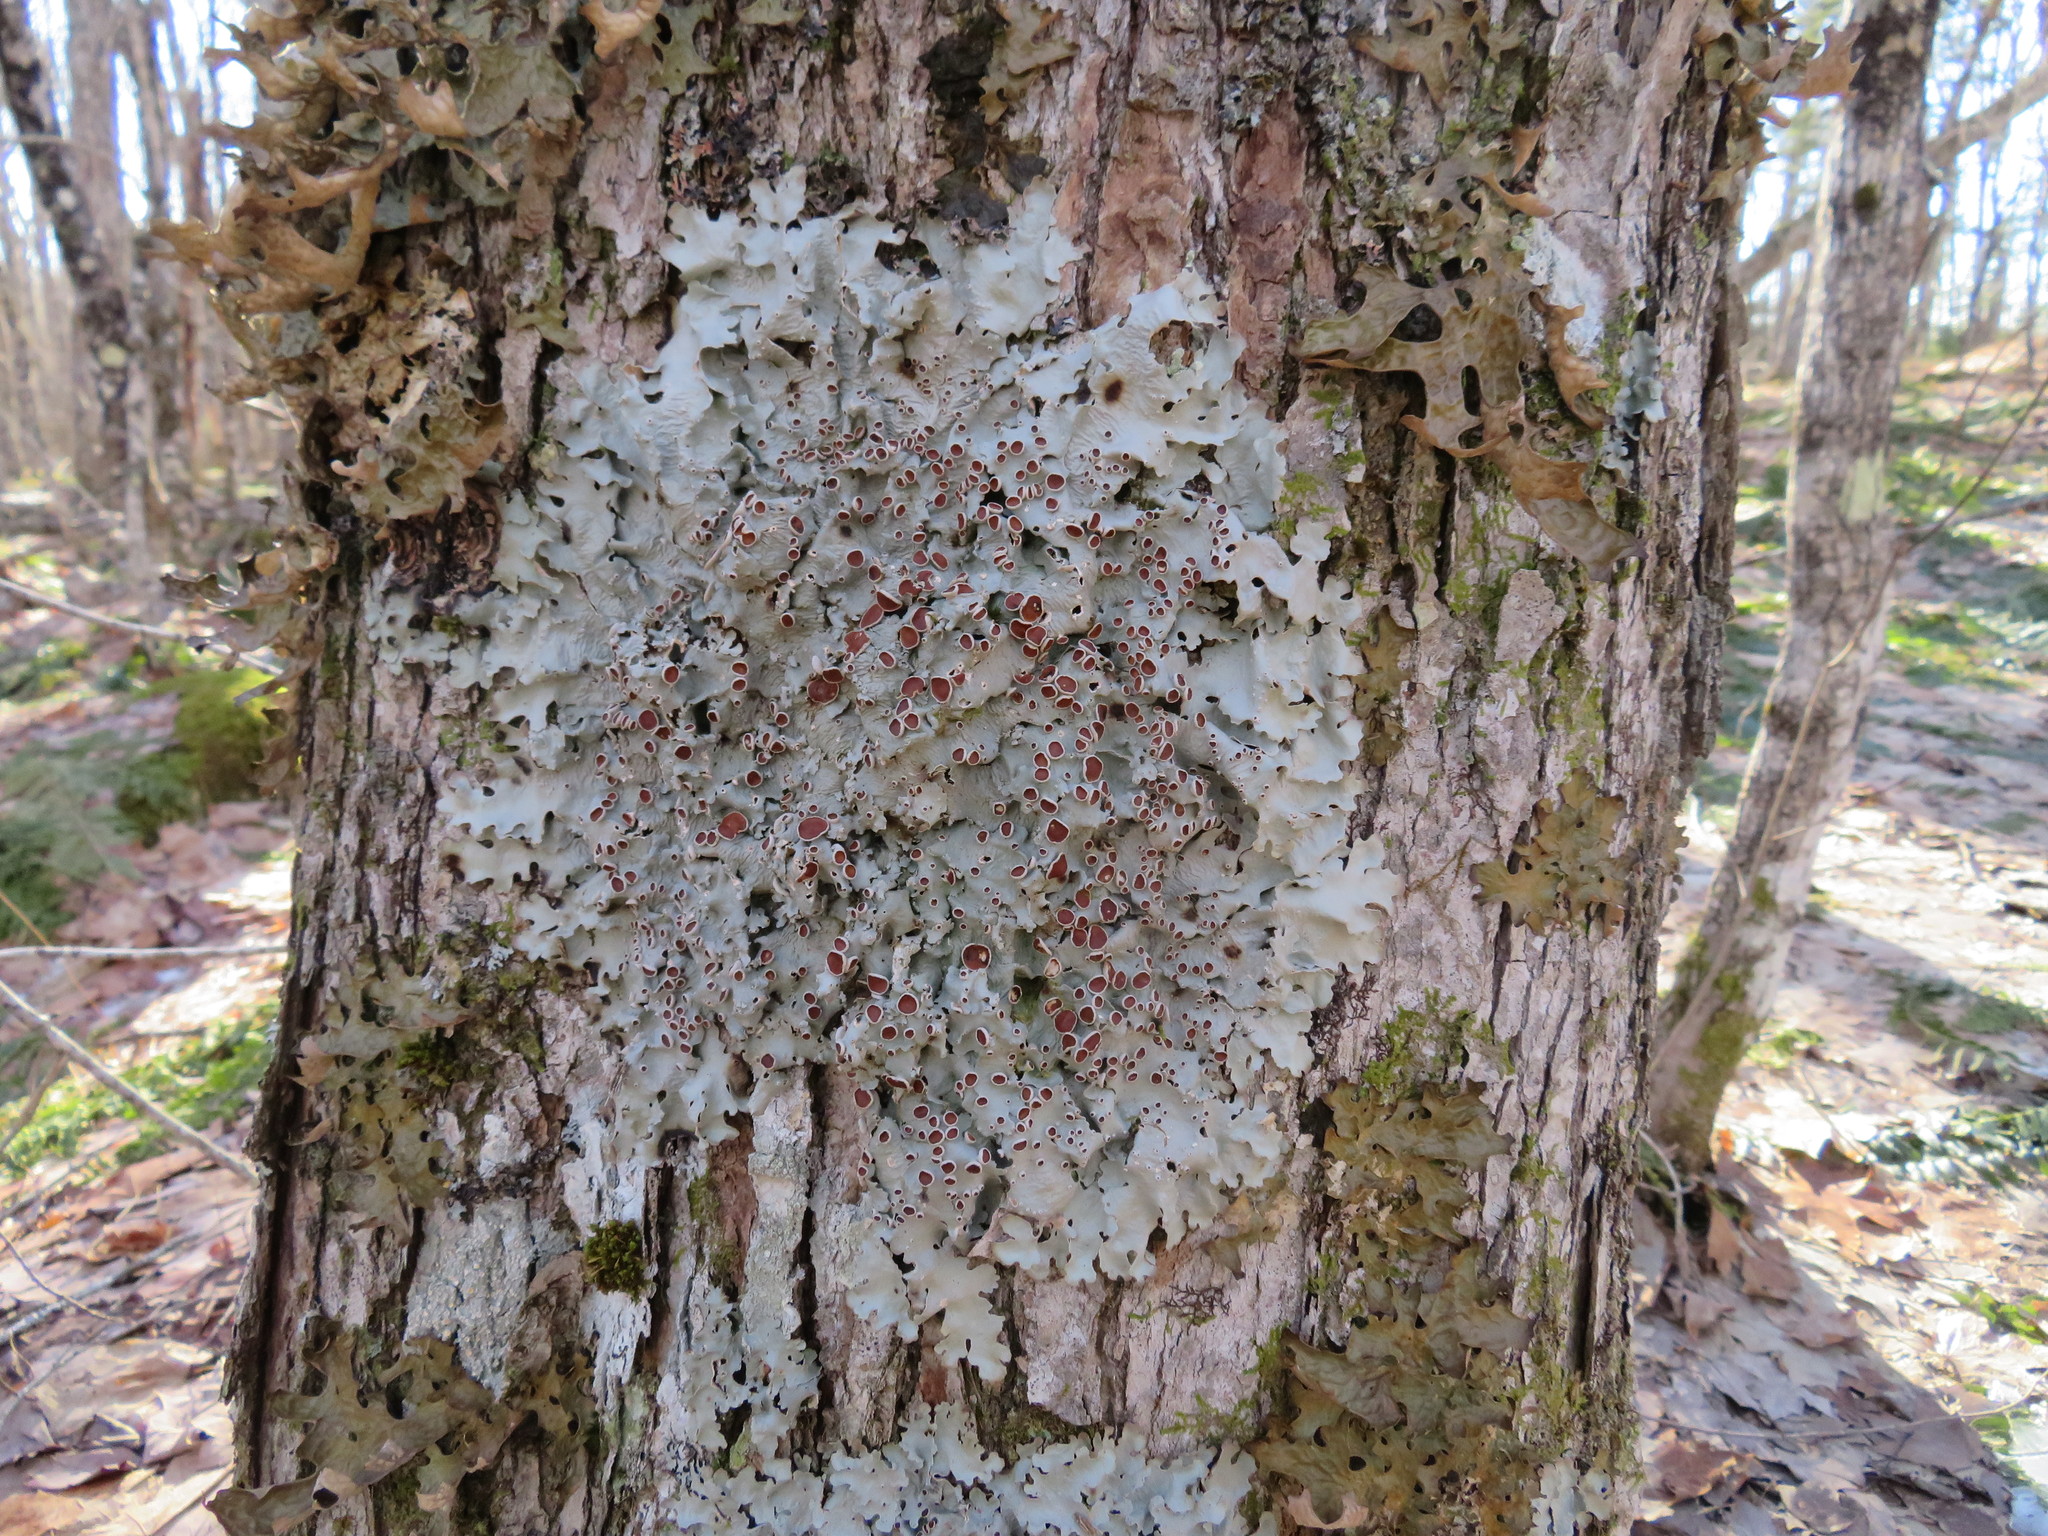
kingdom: Fungi
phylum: Ascomycota
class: Lecanoromycetes
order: Peltigerales
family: Lobariaceae
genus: Ricasolia
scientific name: Ricasolia quercizans
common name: Smooth lungwort
